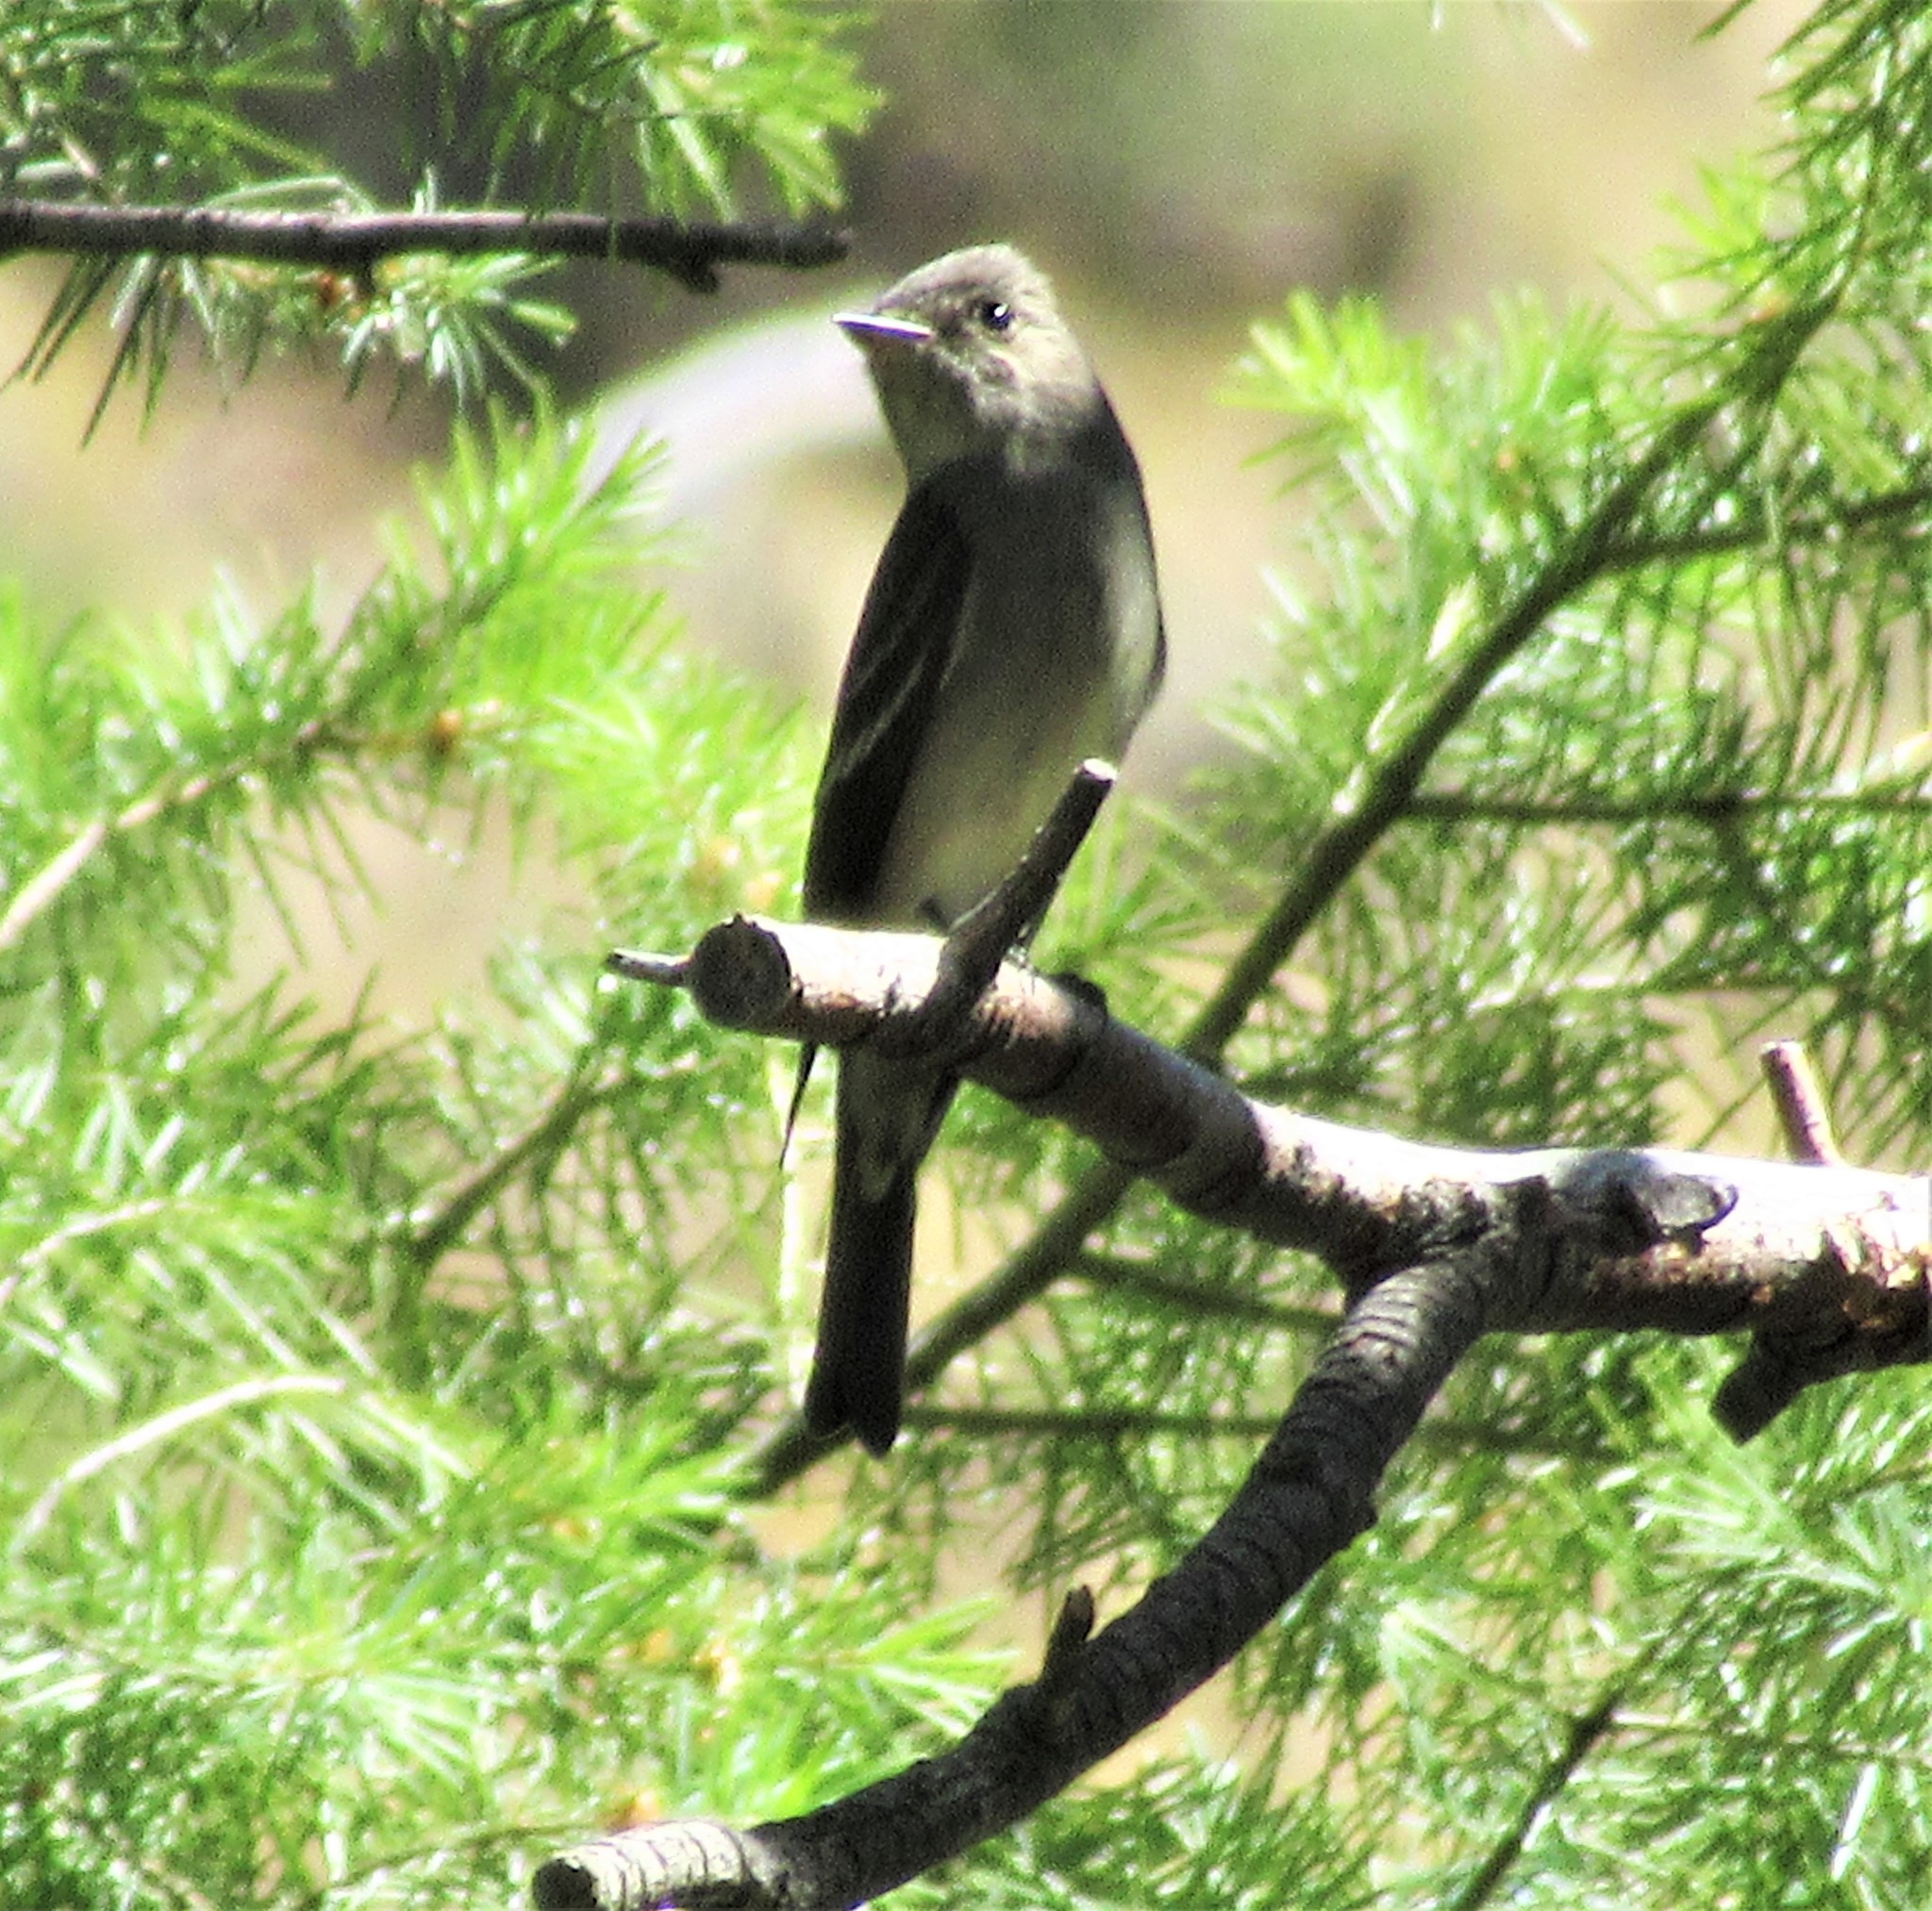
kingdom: Animalia
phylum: Chordata
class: Aves
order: Passeriformes
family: Tyrannidae
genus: Contopus
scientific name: Contopus sordidulus
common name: Western wood-pewee
